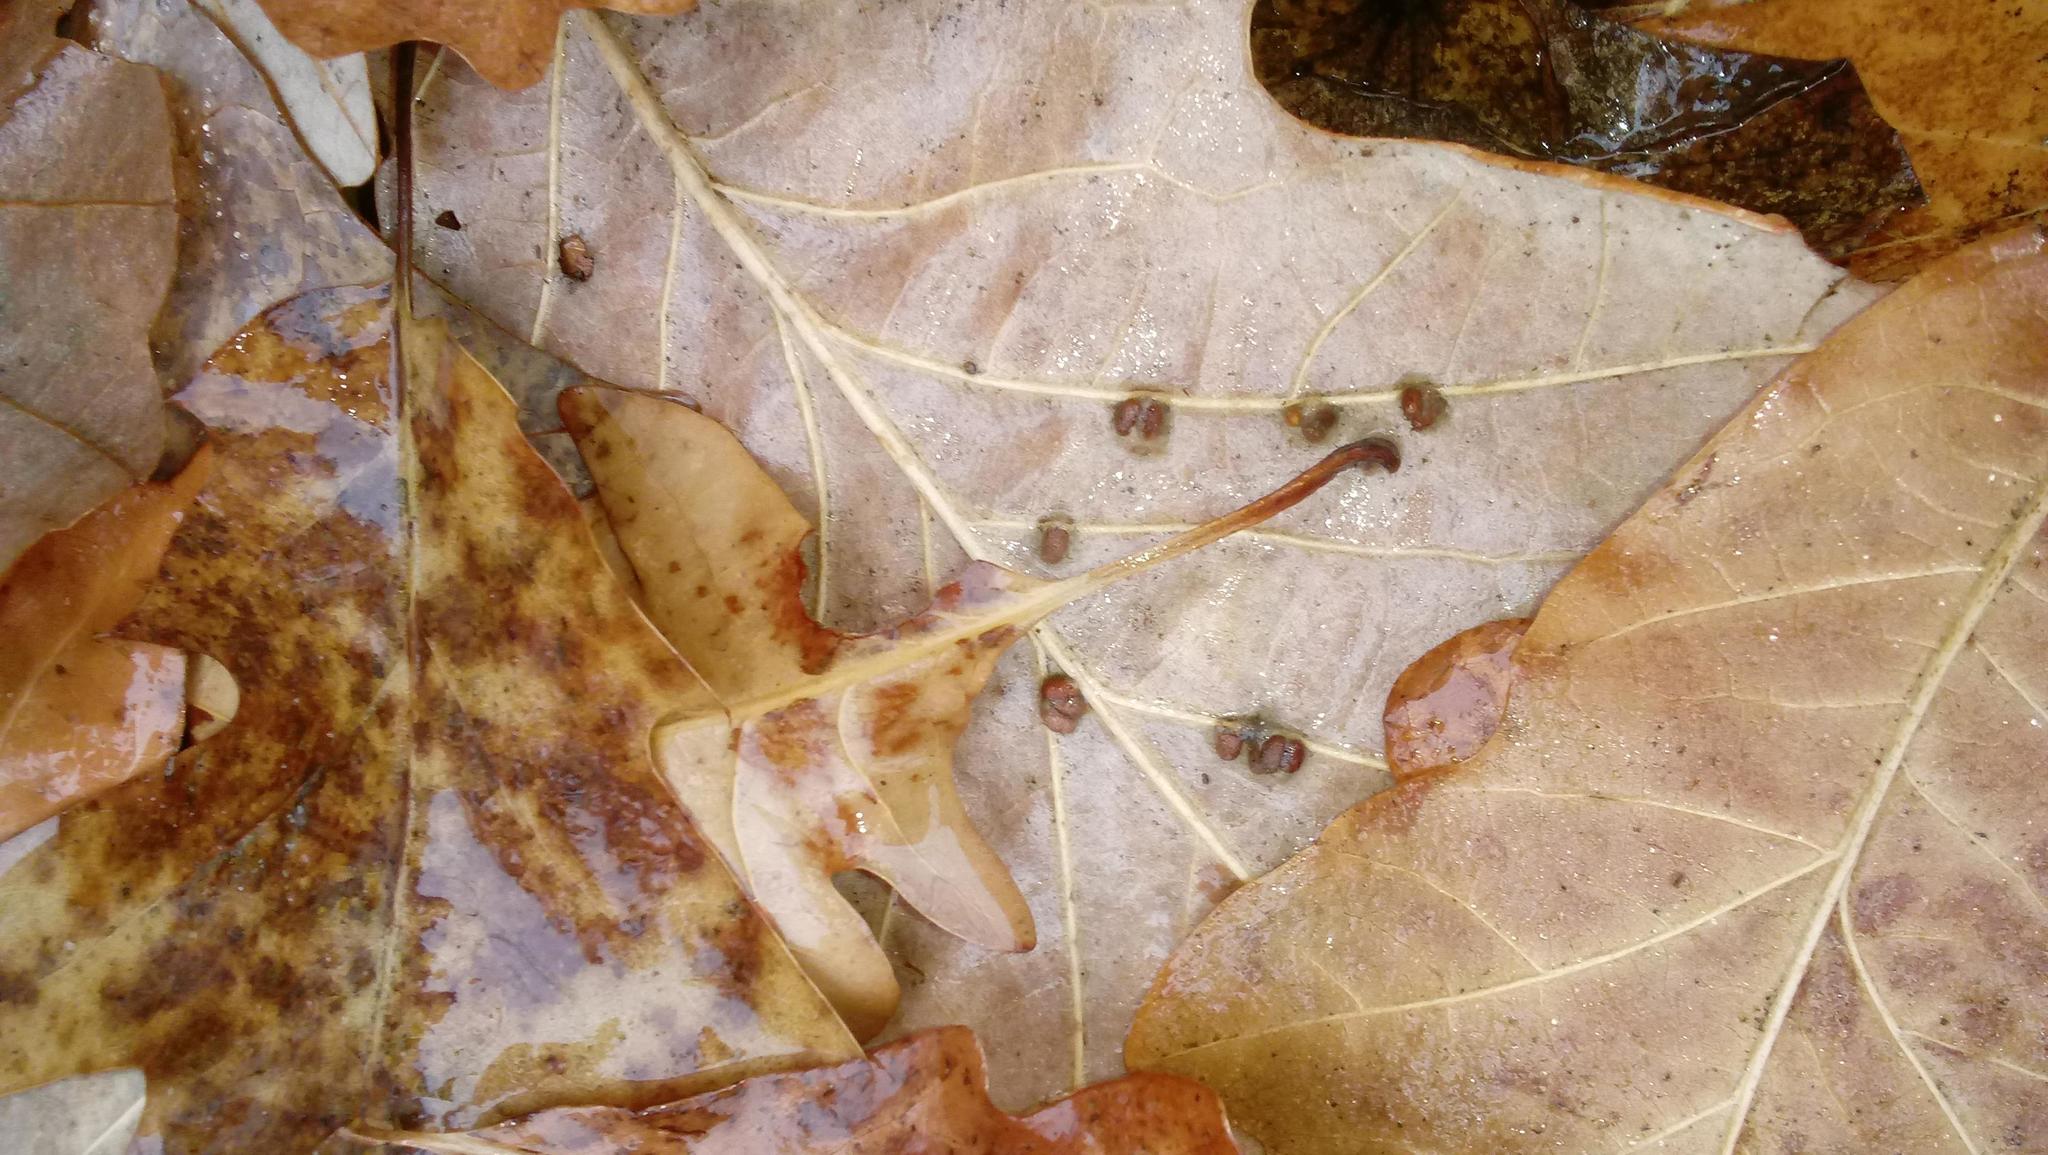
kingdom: Animalia
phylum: Arthropoda
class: Insecta
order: Hymenoptera
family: Cynipidae
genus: Andricus
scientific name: Andricus Druon ignotum
